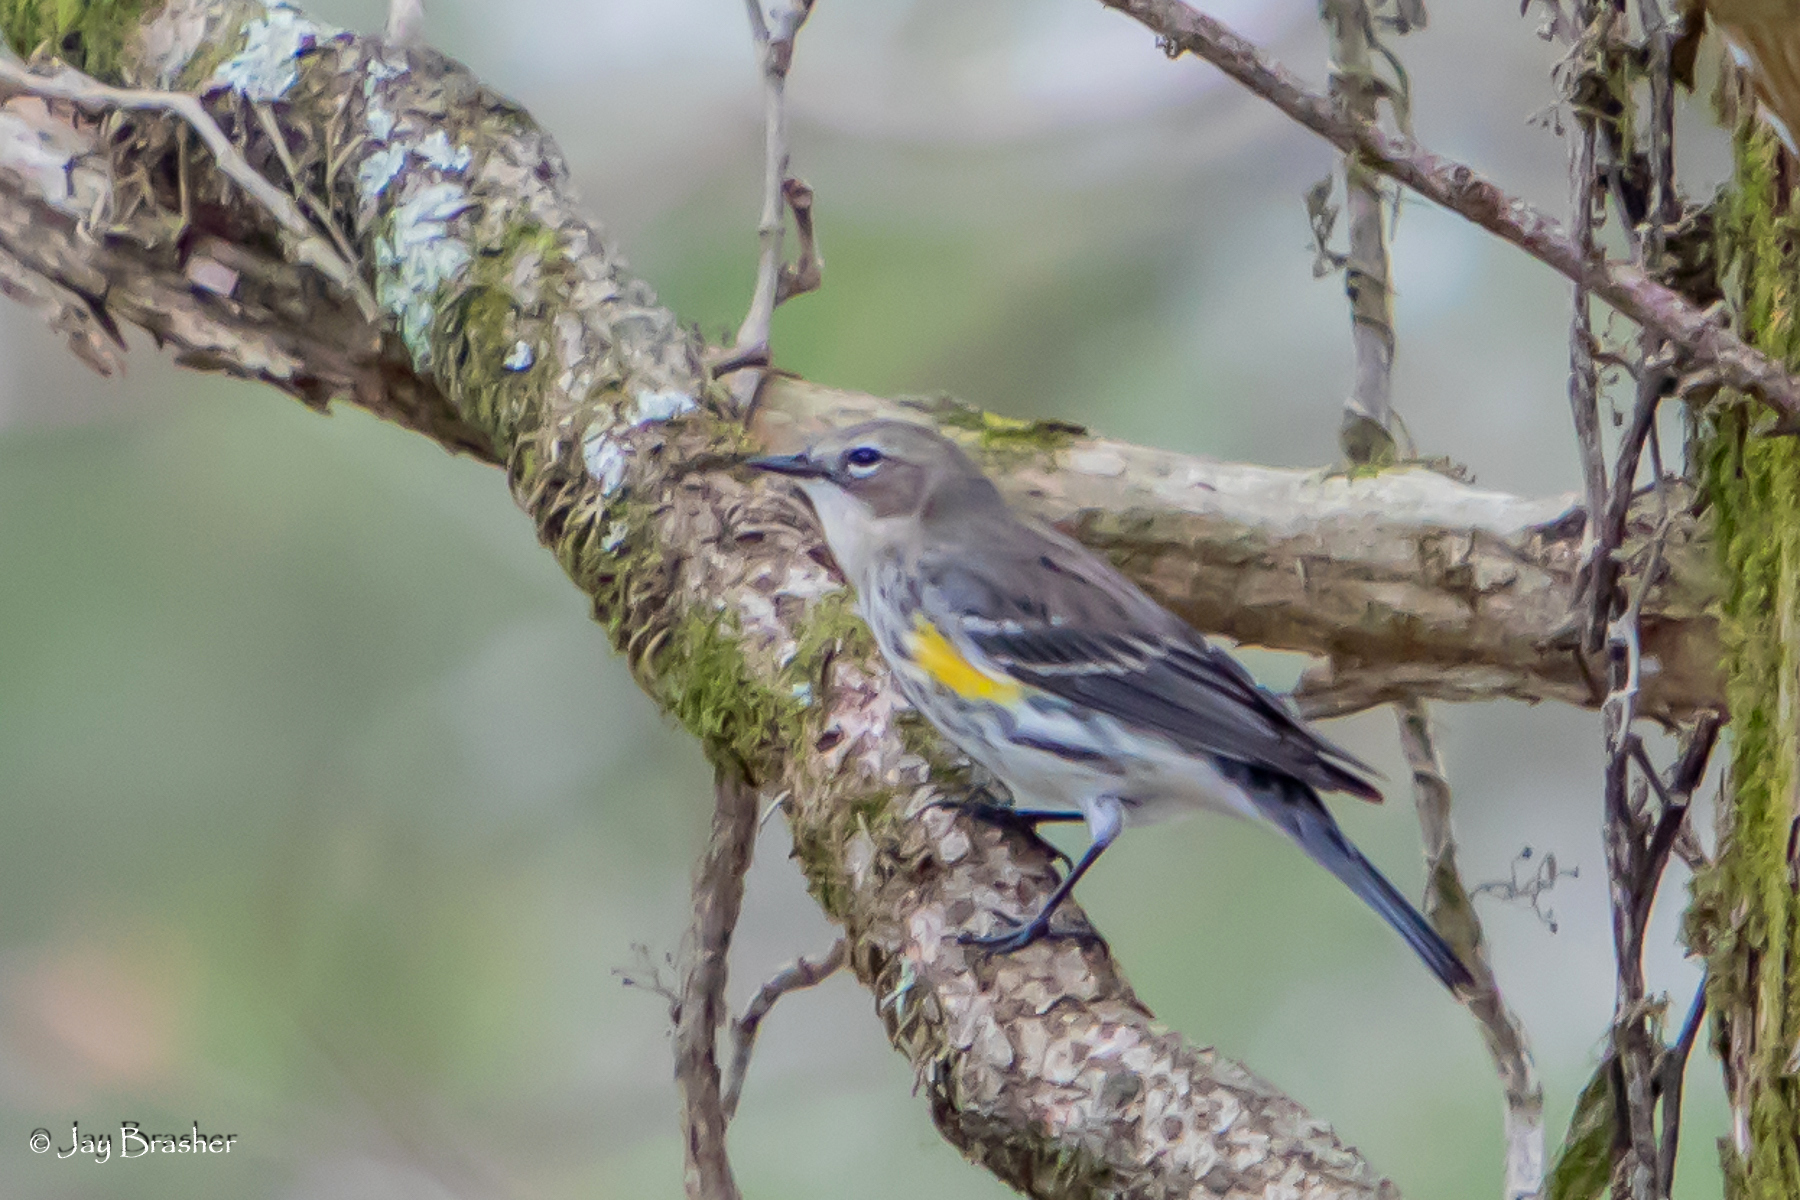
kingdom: Animalia
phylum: Chordata
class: Aves
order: Passeriformes
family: Parulidae
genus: Setophaga
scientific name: Setophaga coronata
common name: Myrtle warbler
